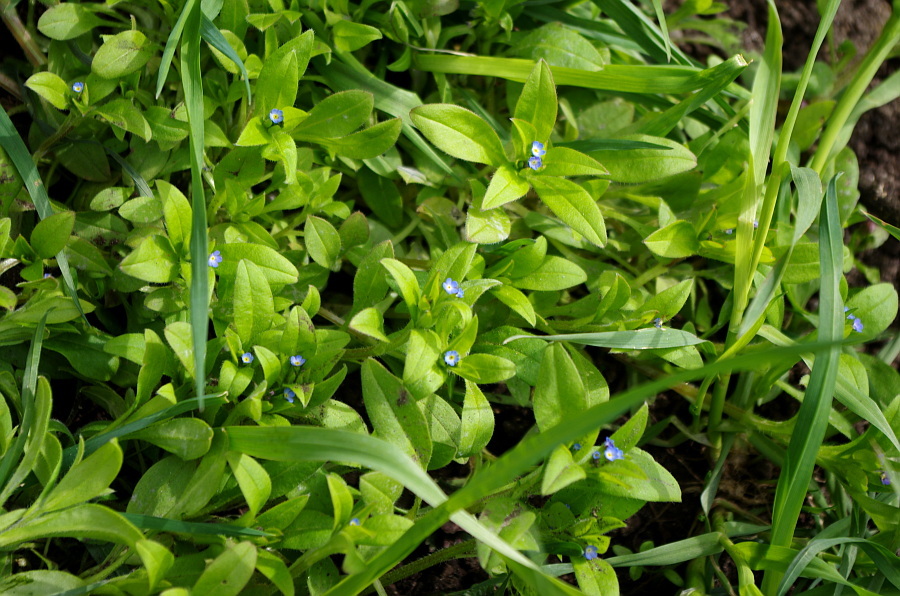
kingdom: Plantae
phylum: Tracheophyta
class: Magnoliopsida
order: Boraginales
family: Boraginaceae
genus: Myosotis
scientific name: Myosotis sparsiflora
